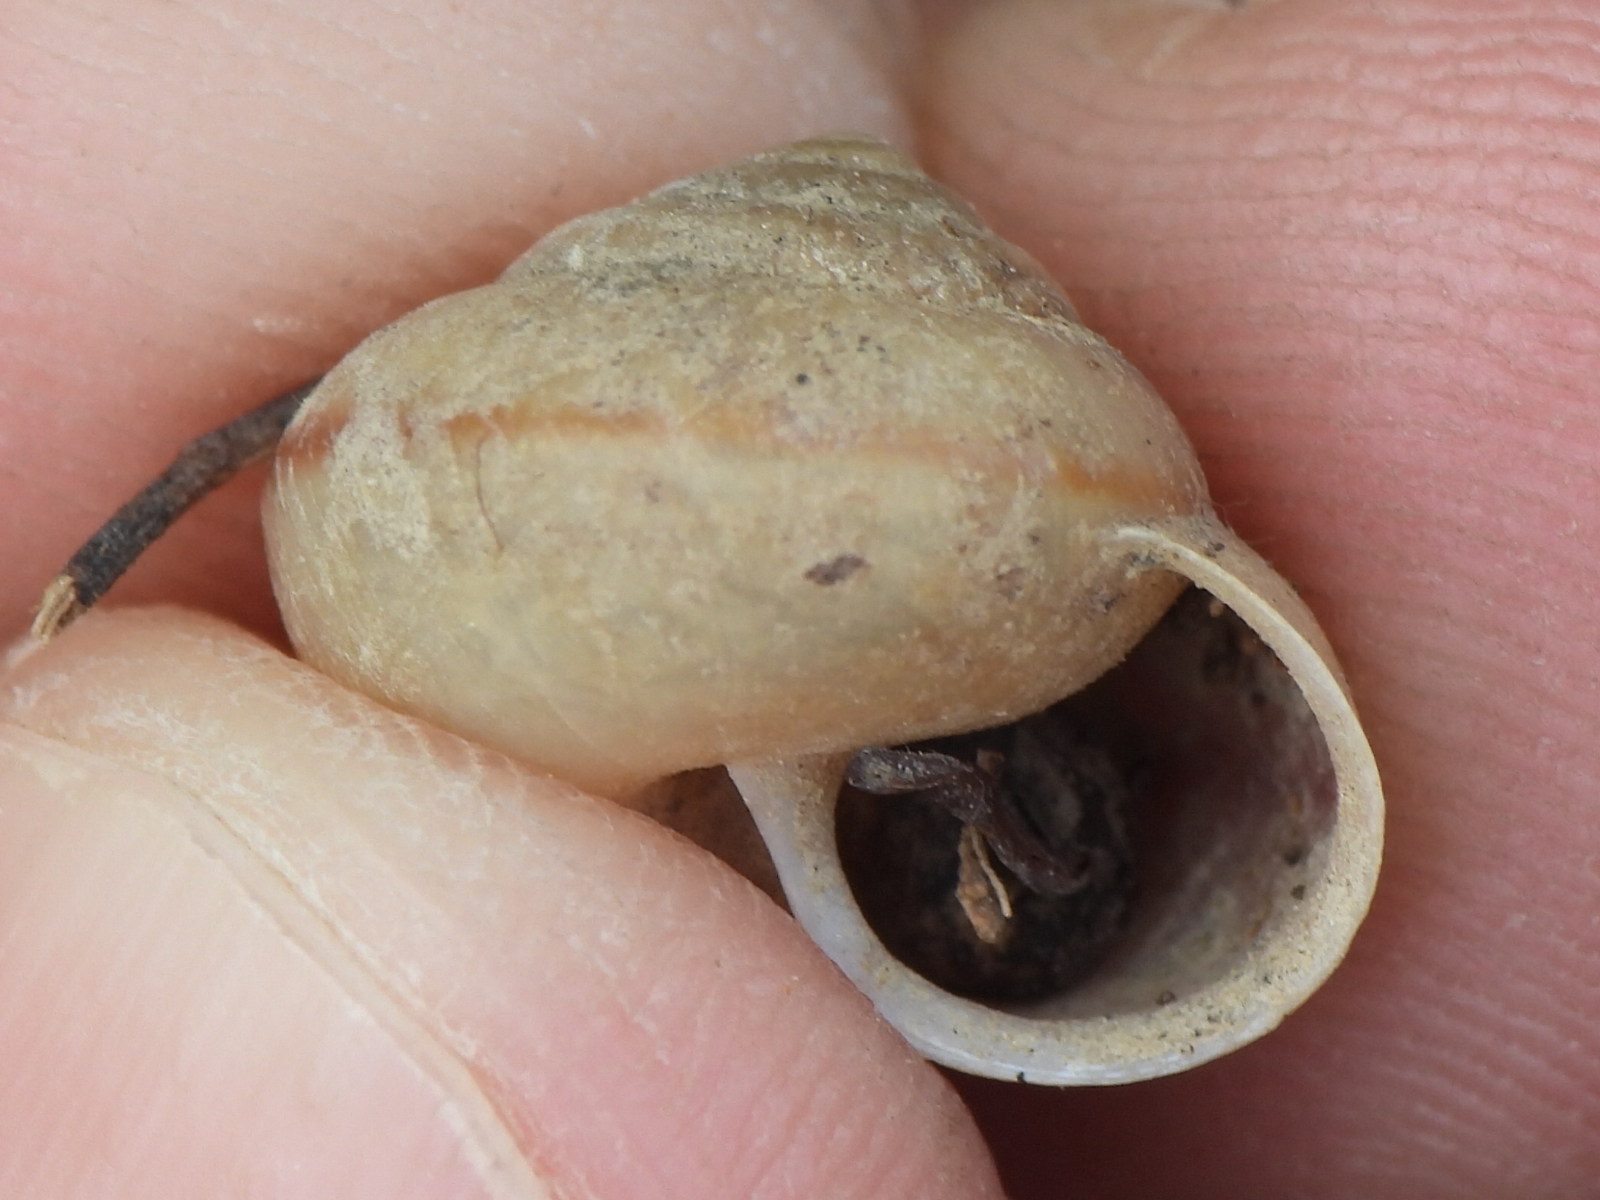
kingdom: Animalia
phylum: Mollusca
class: Gastropoda
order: Stylommatophora
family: Camaenidae
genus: Bradybaena
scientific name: Bradybaena similaris
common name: Asian trampsnail
